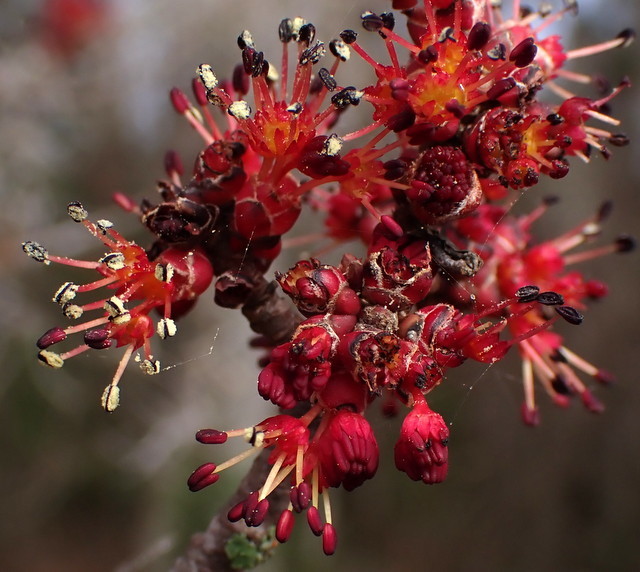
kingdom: Plantae
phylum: Tracheophyta
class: Magnoliopsida
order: Sapindales
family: Sapindaceae
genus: Acer
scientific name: Acer rubrum
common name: Red maple
